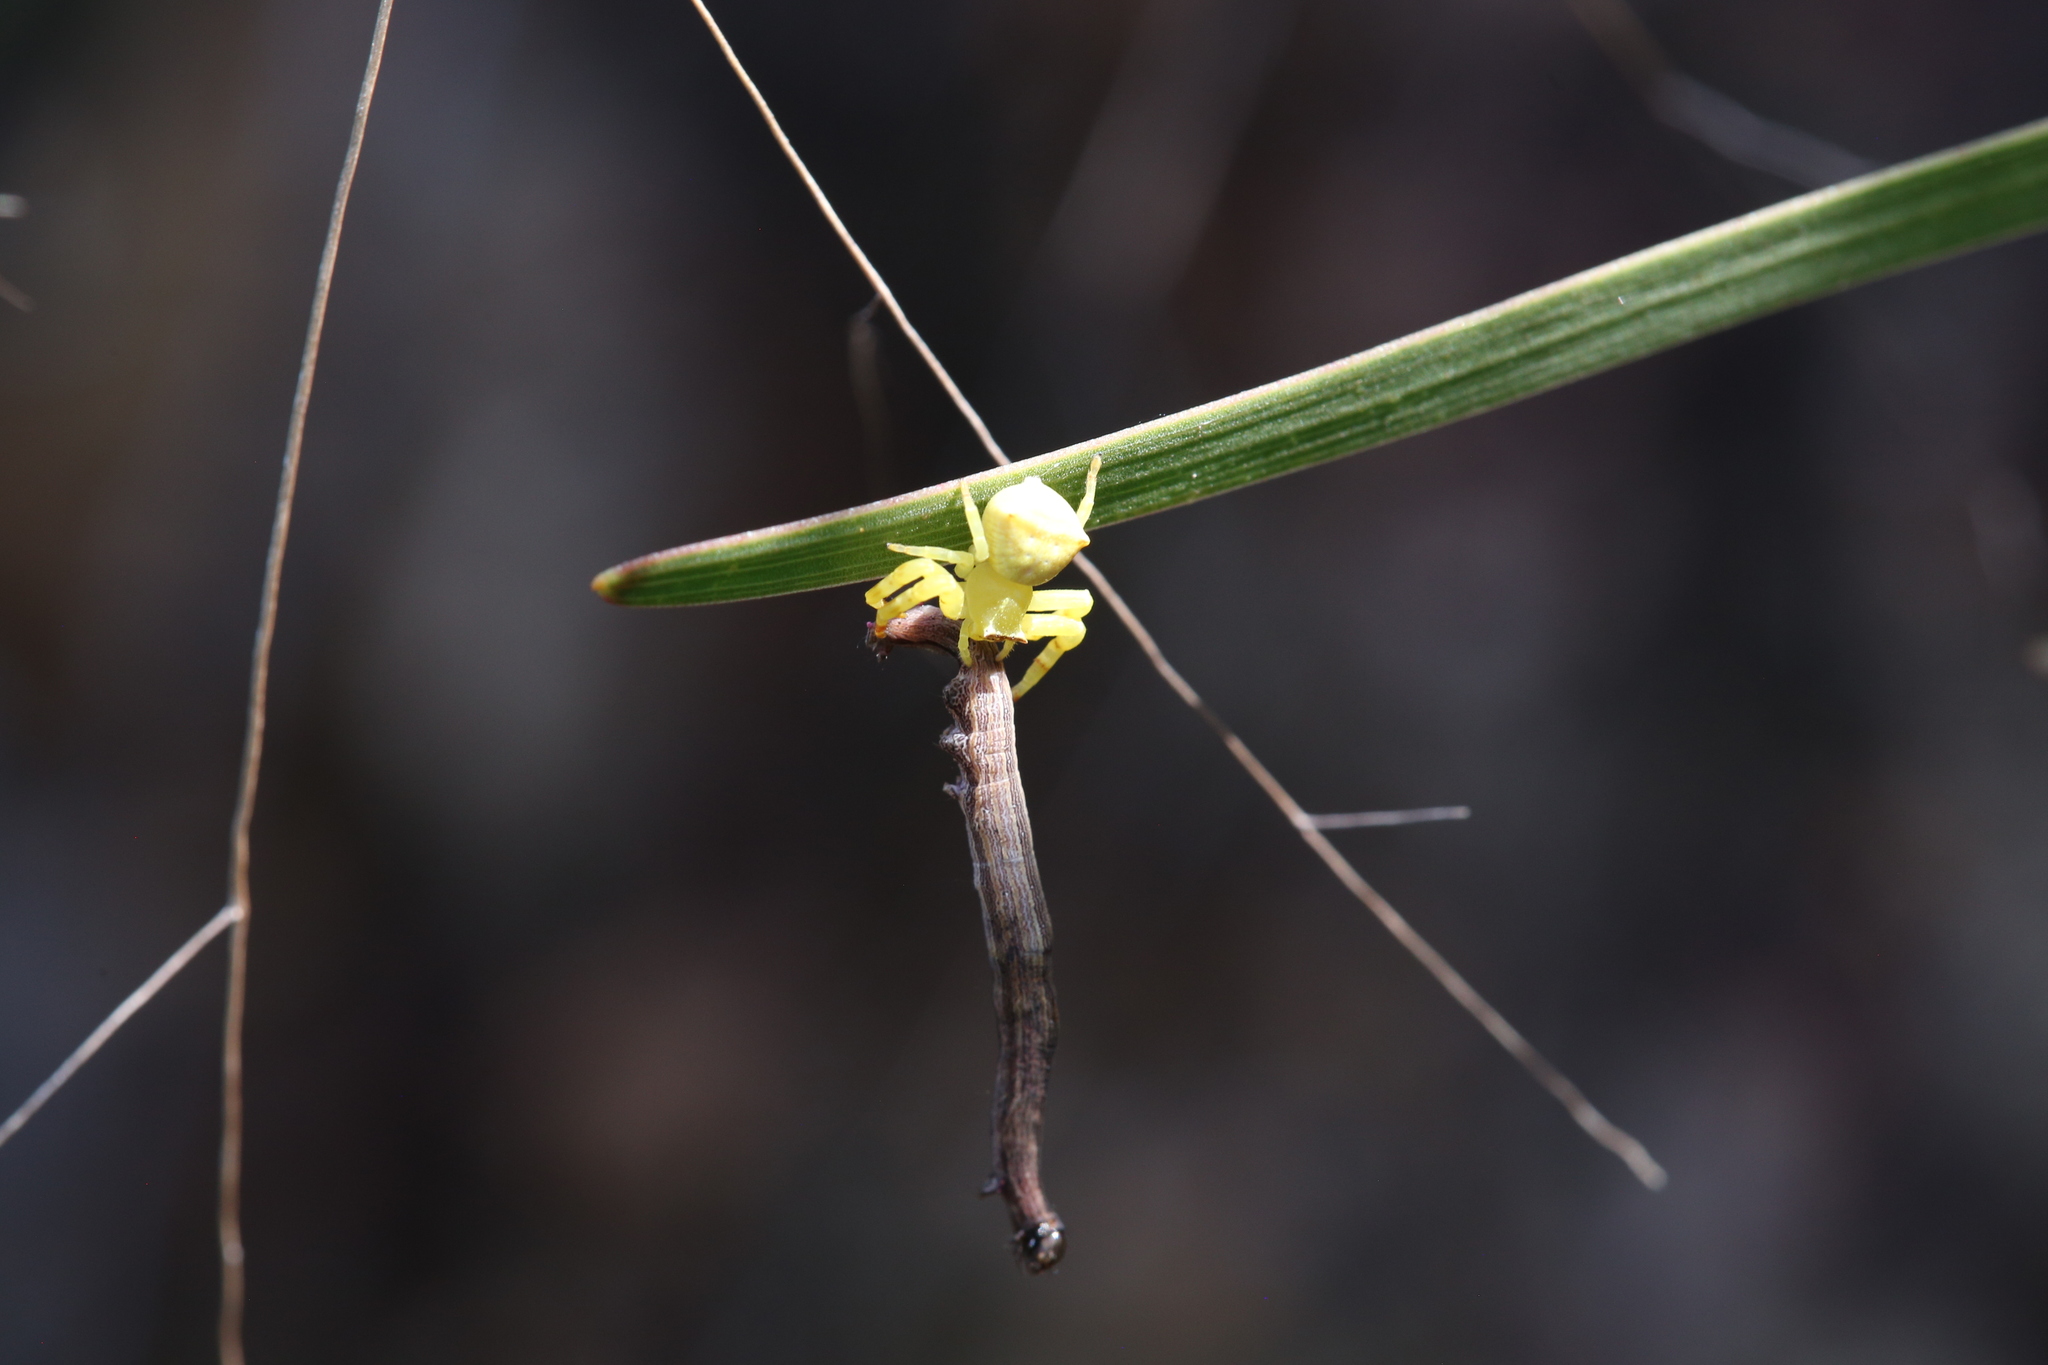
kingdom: Animalia
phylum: Arthropoda
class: Arachnida
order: Araneae
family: Thomisidae
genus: Thomisus
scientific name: Thomisus spectabilis
